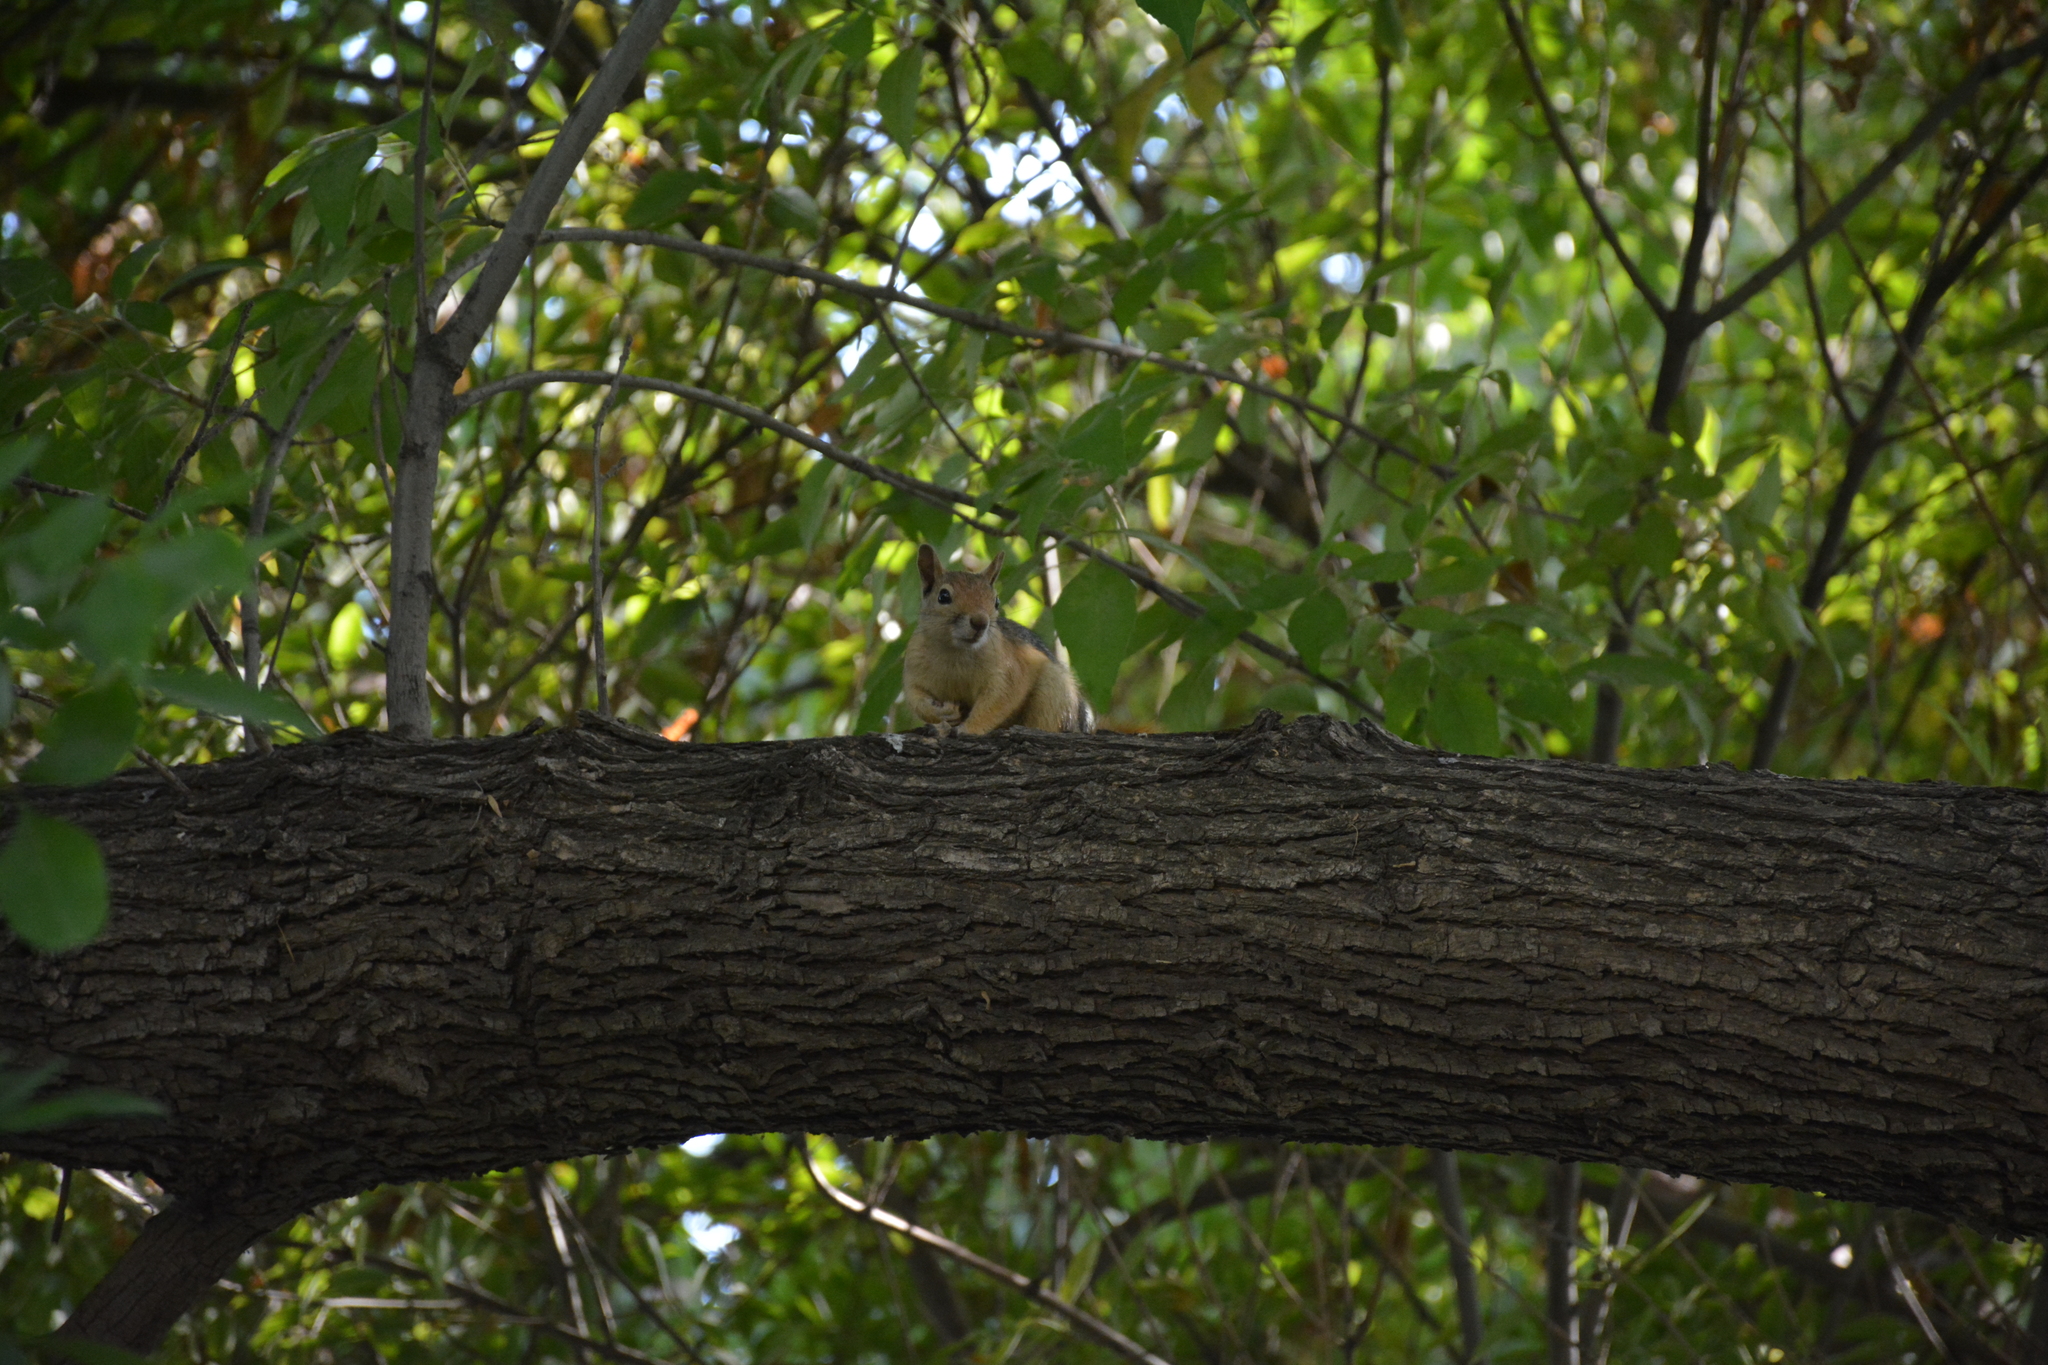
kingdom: Animalia
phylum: Chordata
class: Mammalia
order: Rodentia
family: Sciuridae
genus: Sciurus
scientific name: Sciurus anomalus
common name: Caucasian squirrel
